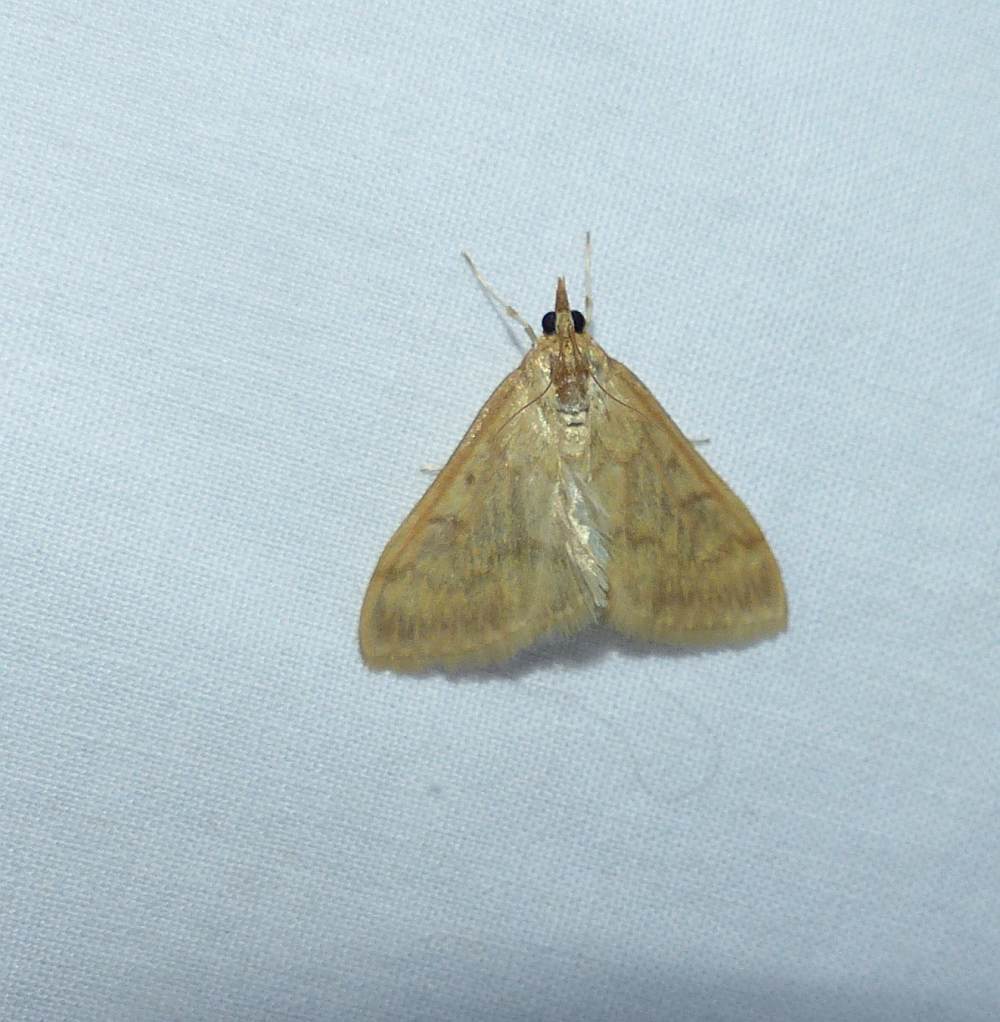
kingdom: Animalia
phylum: Arthropoda
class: Insecta
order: Lepidoptera
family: Crambidae
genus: Ostrinia
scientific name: Ostrinia nubilalis
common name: European corn borer
